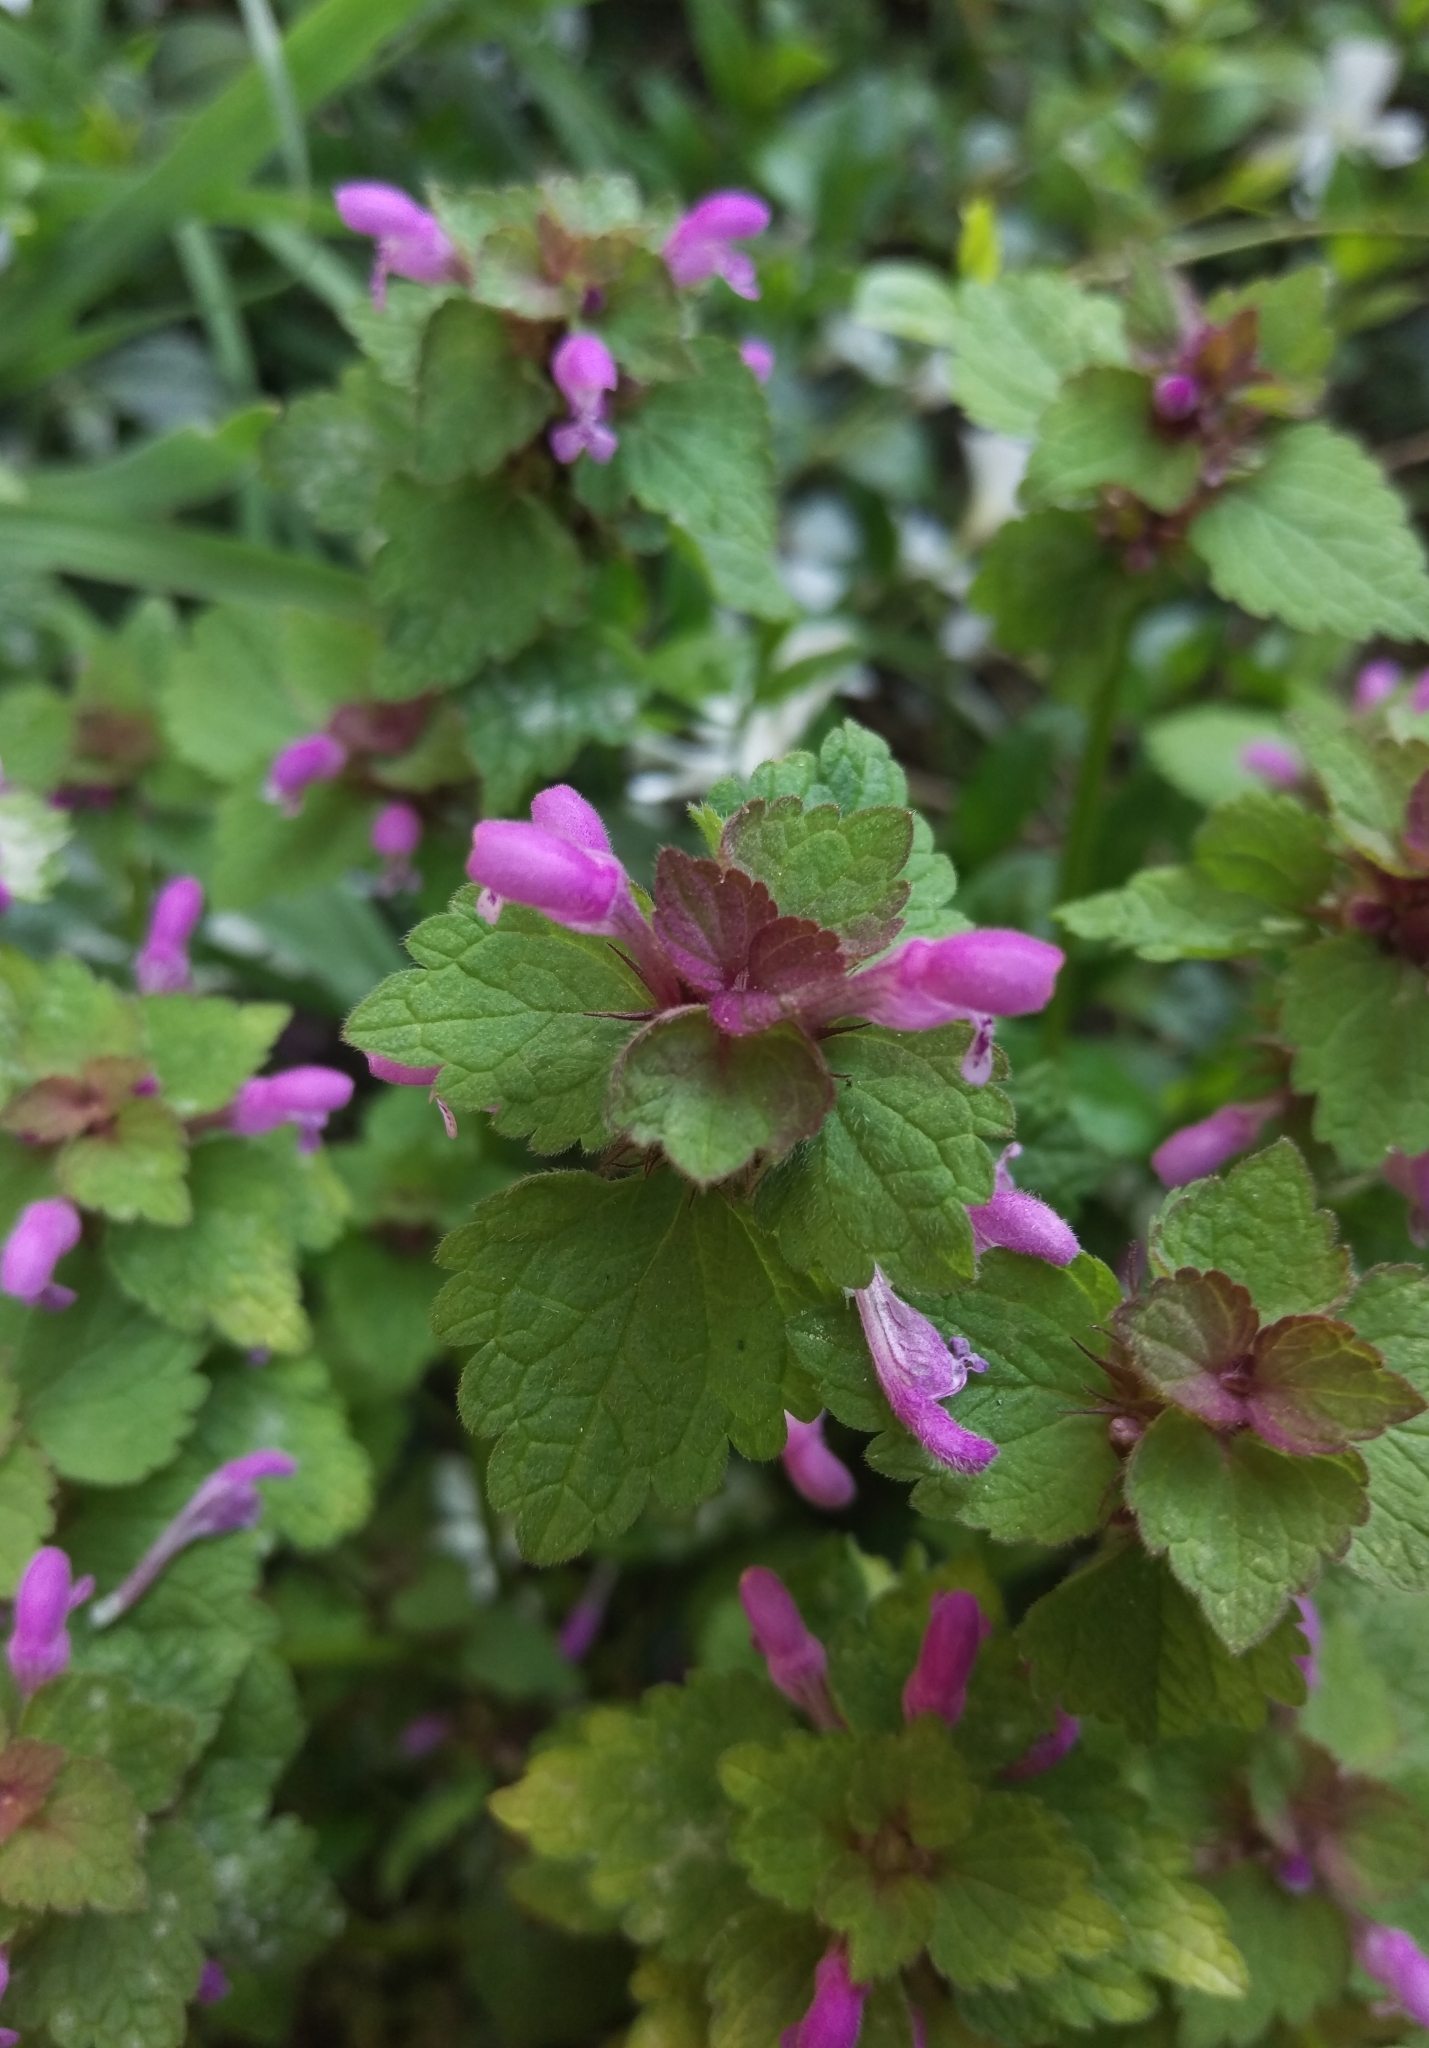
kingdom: Plantae
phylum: Tracheophyta
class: Magnoliopsida
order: Lamiales
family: Lamiaceae
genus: Lamium
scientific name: Lamium purpureum
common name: Red dead-nettle
